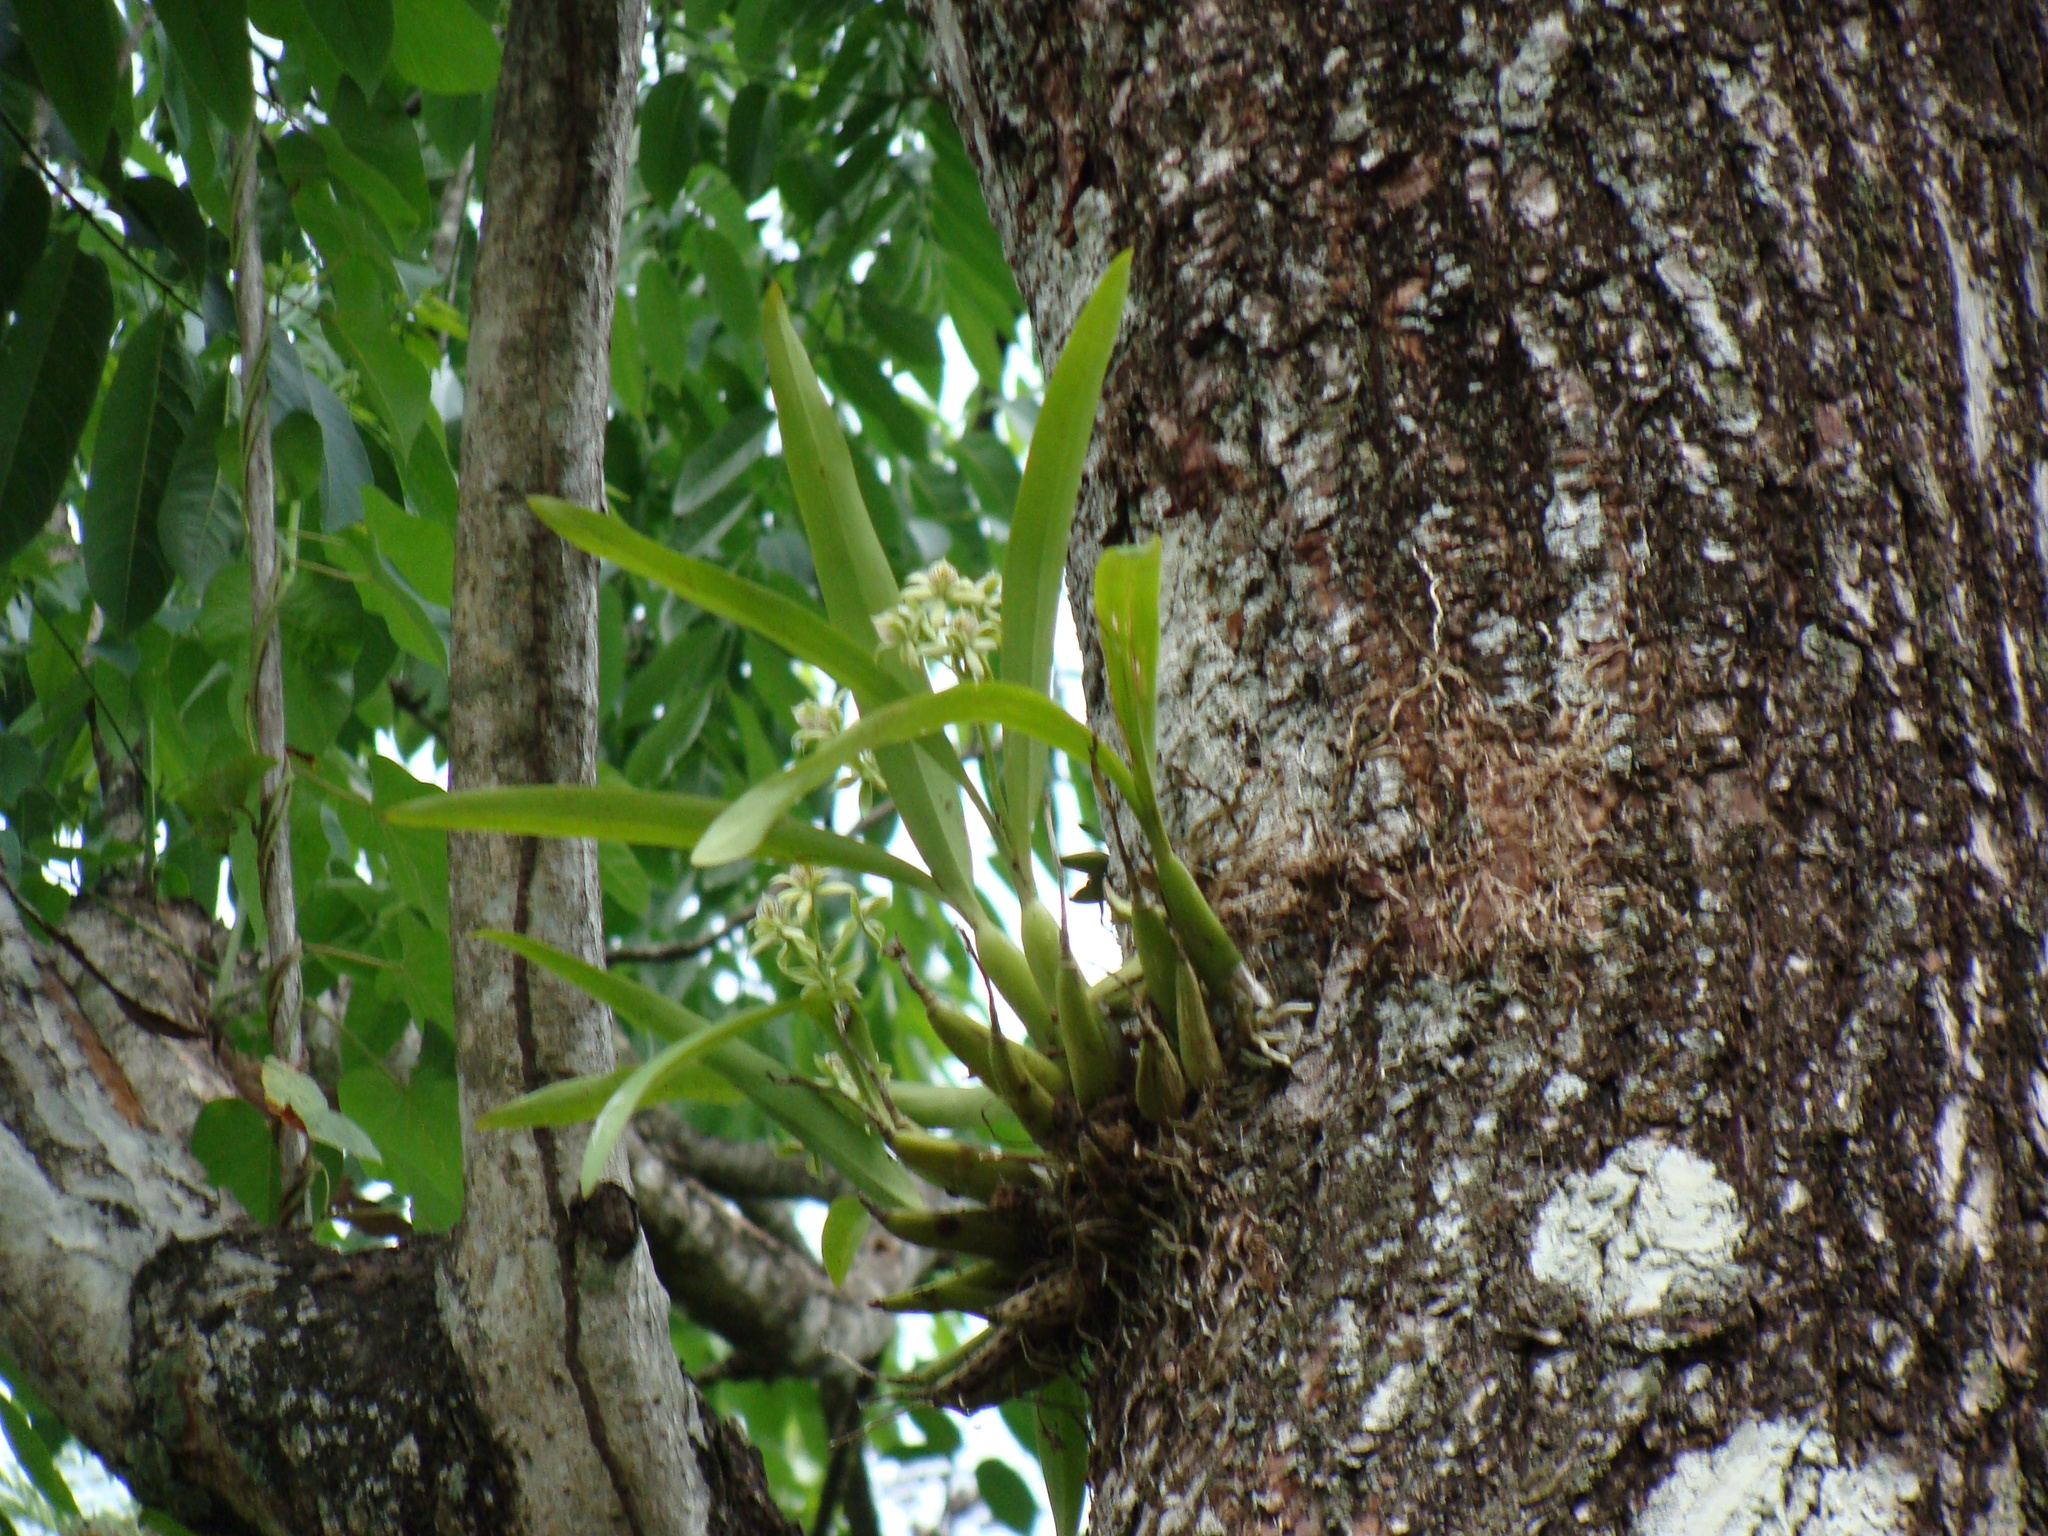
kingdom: Plantae
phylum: Tracheophyta
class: Liliopsida
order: Asparagales
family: Orchidaceae
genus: Prosthechea
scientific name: Prosthechea chacaoensis
